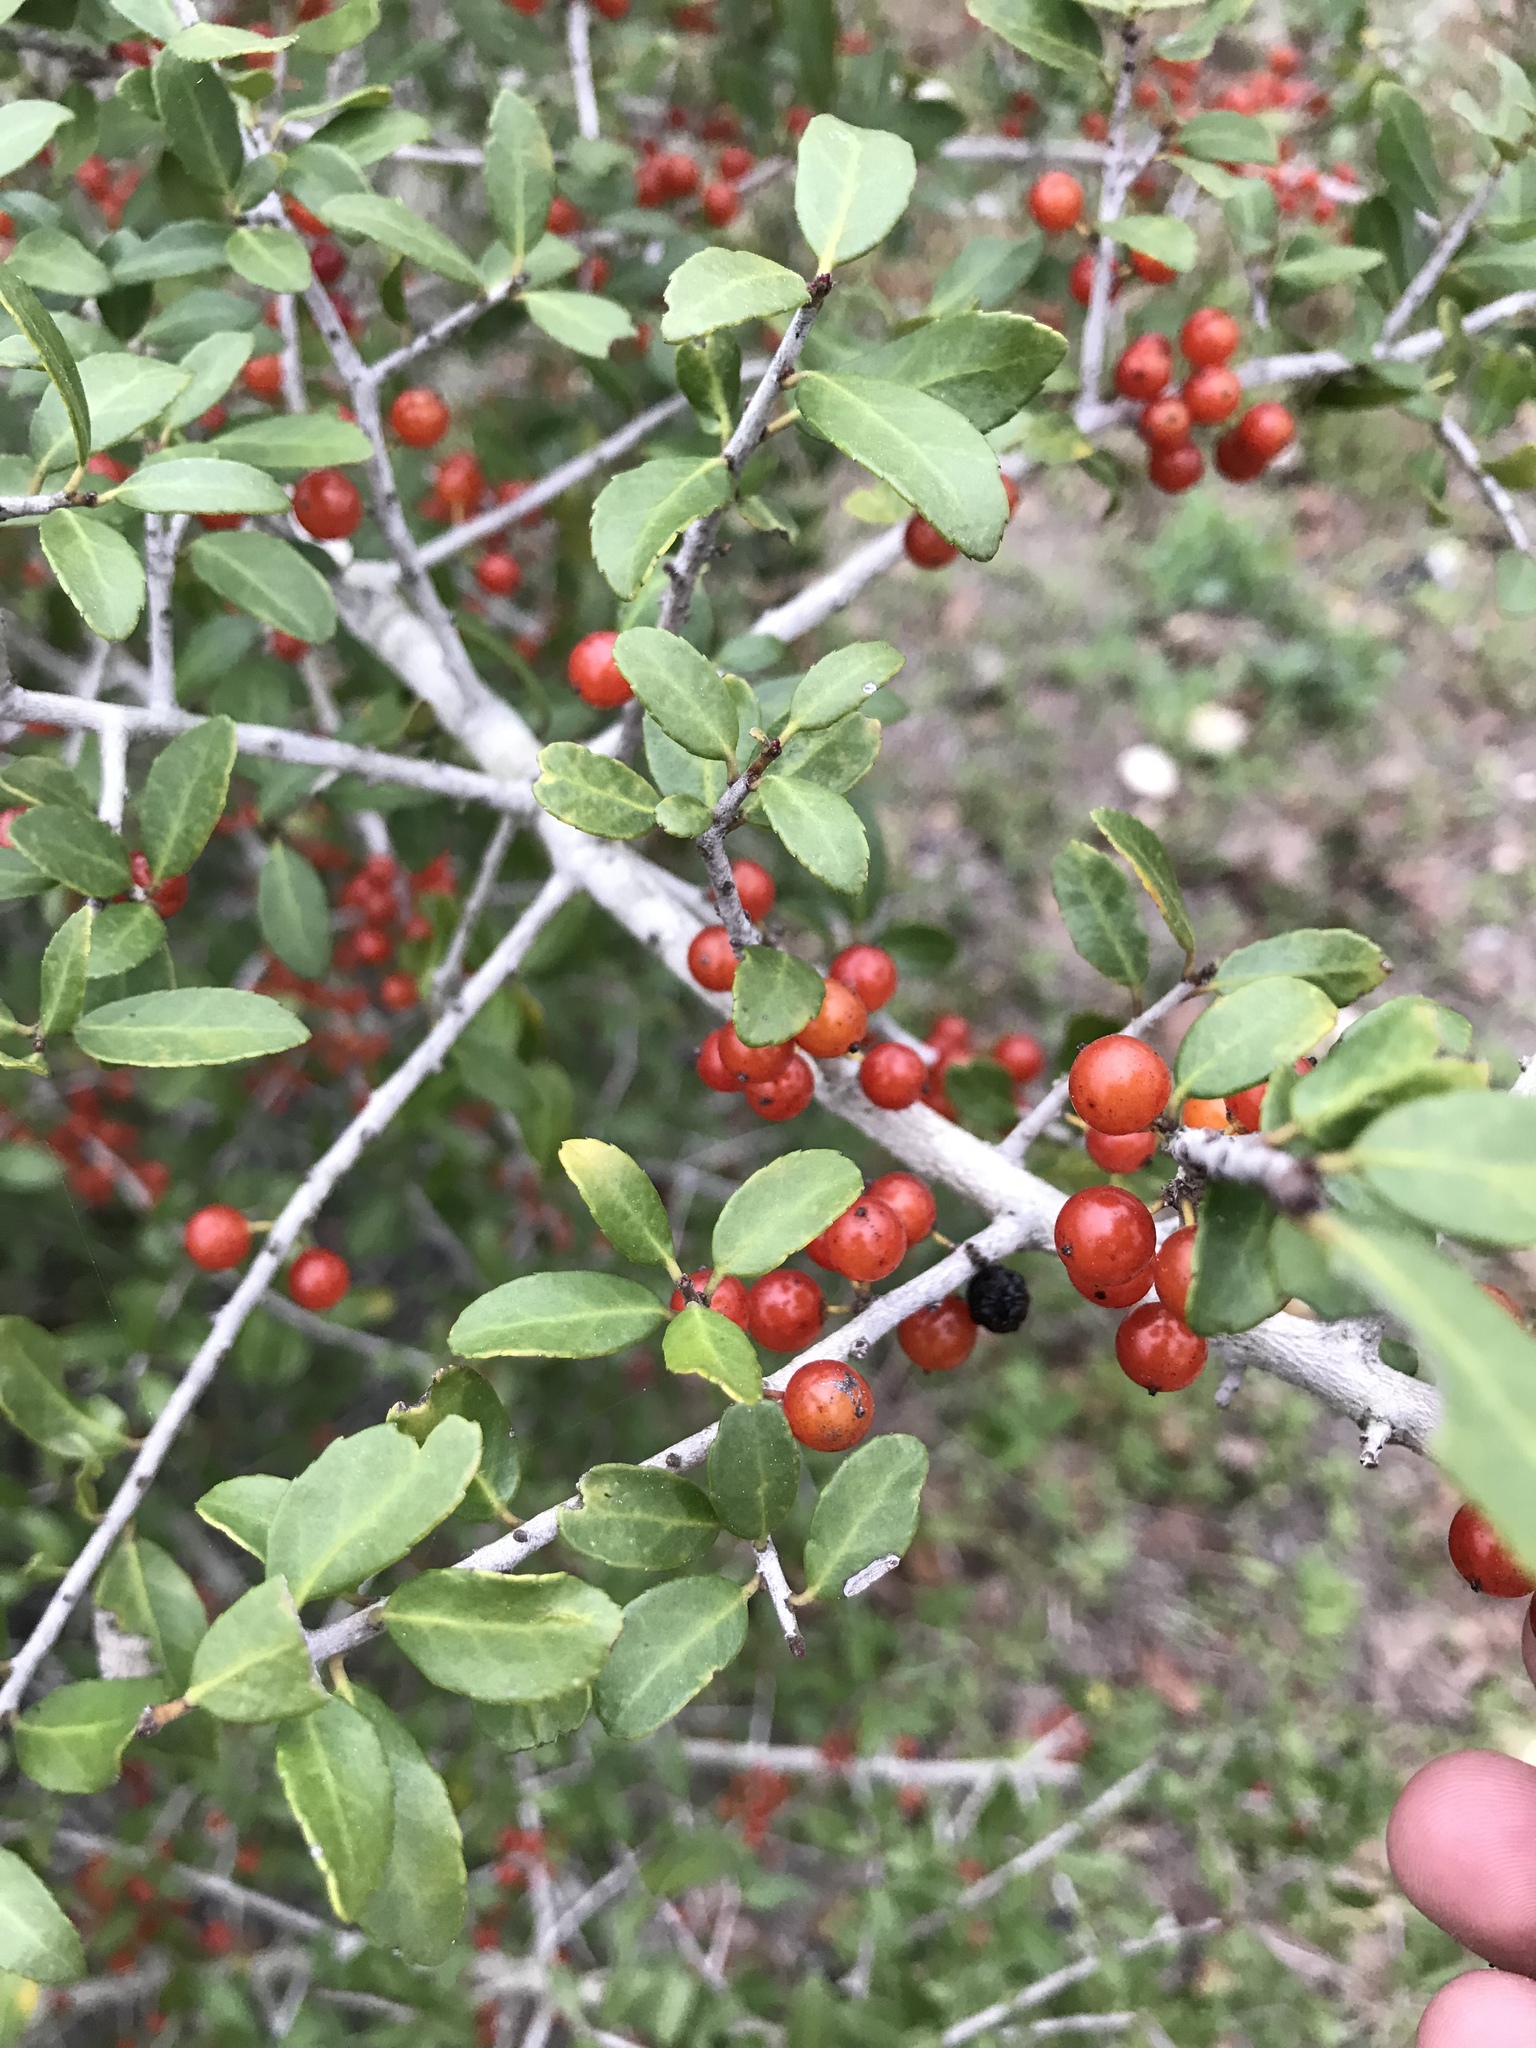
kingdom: Plantae
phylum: Tracheophyta
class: Magnoliopsida
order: Aquifoliales
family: Aquifoliaceae
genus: Ilex
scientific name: Ilex vomitoria
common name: Yaupon holly
